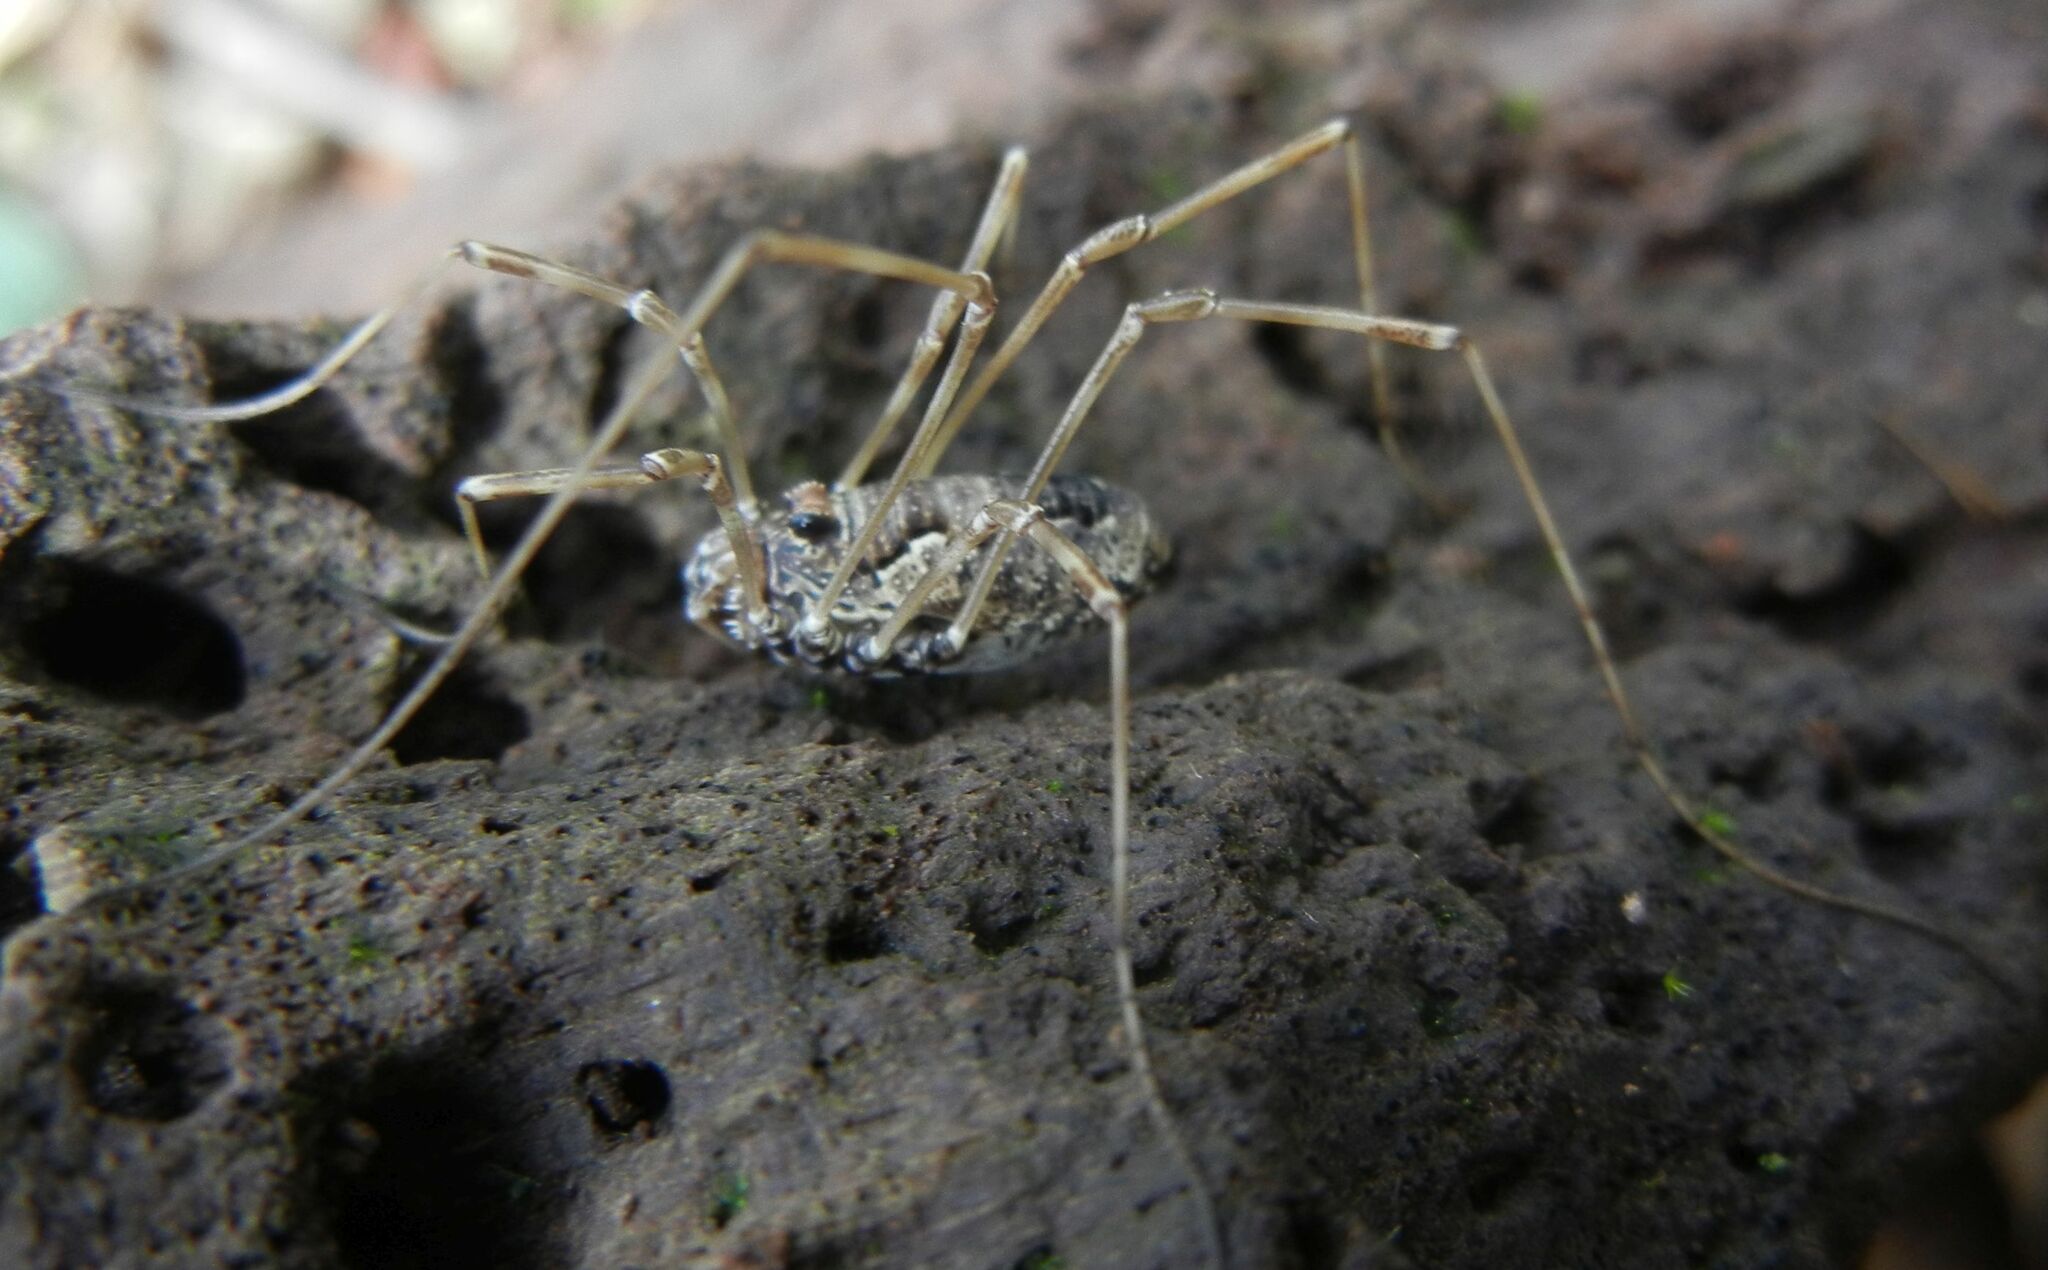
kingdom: Animalia
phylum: Arthropoda
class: Arachnida
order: Opiliones
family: Phalangiidae
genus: Platybunus
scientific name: Platybunus pinetorum
